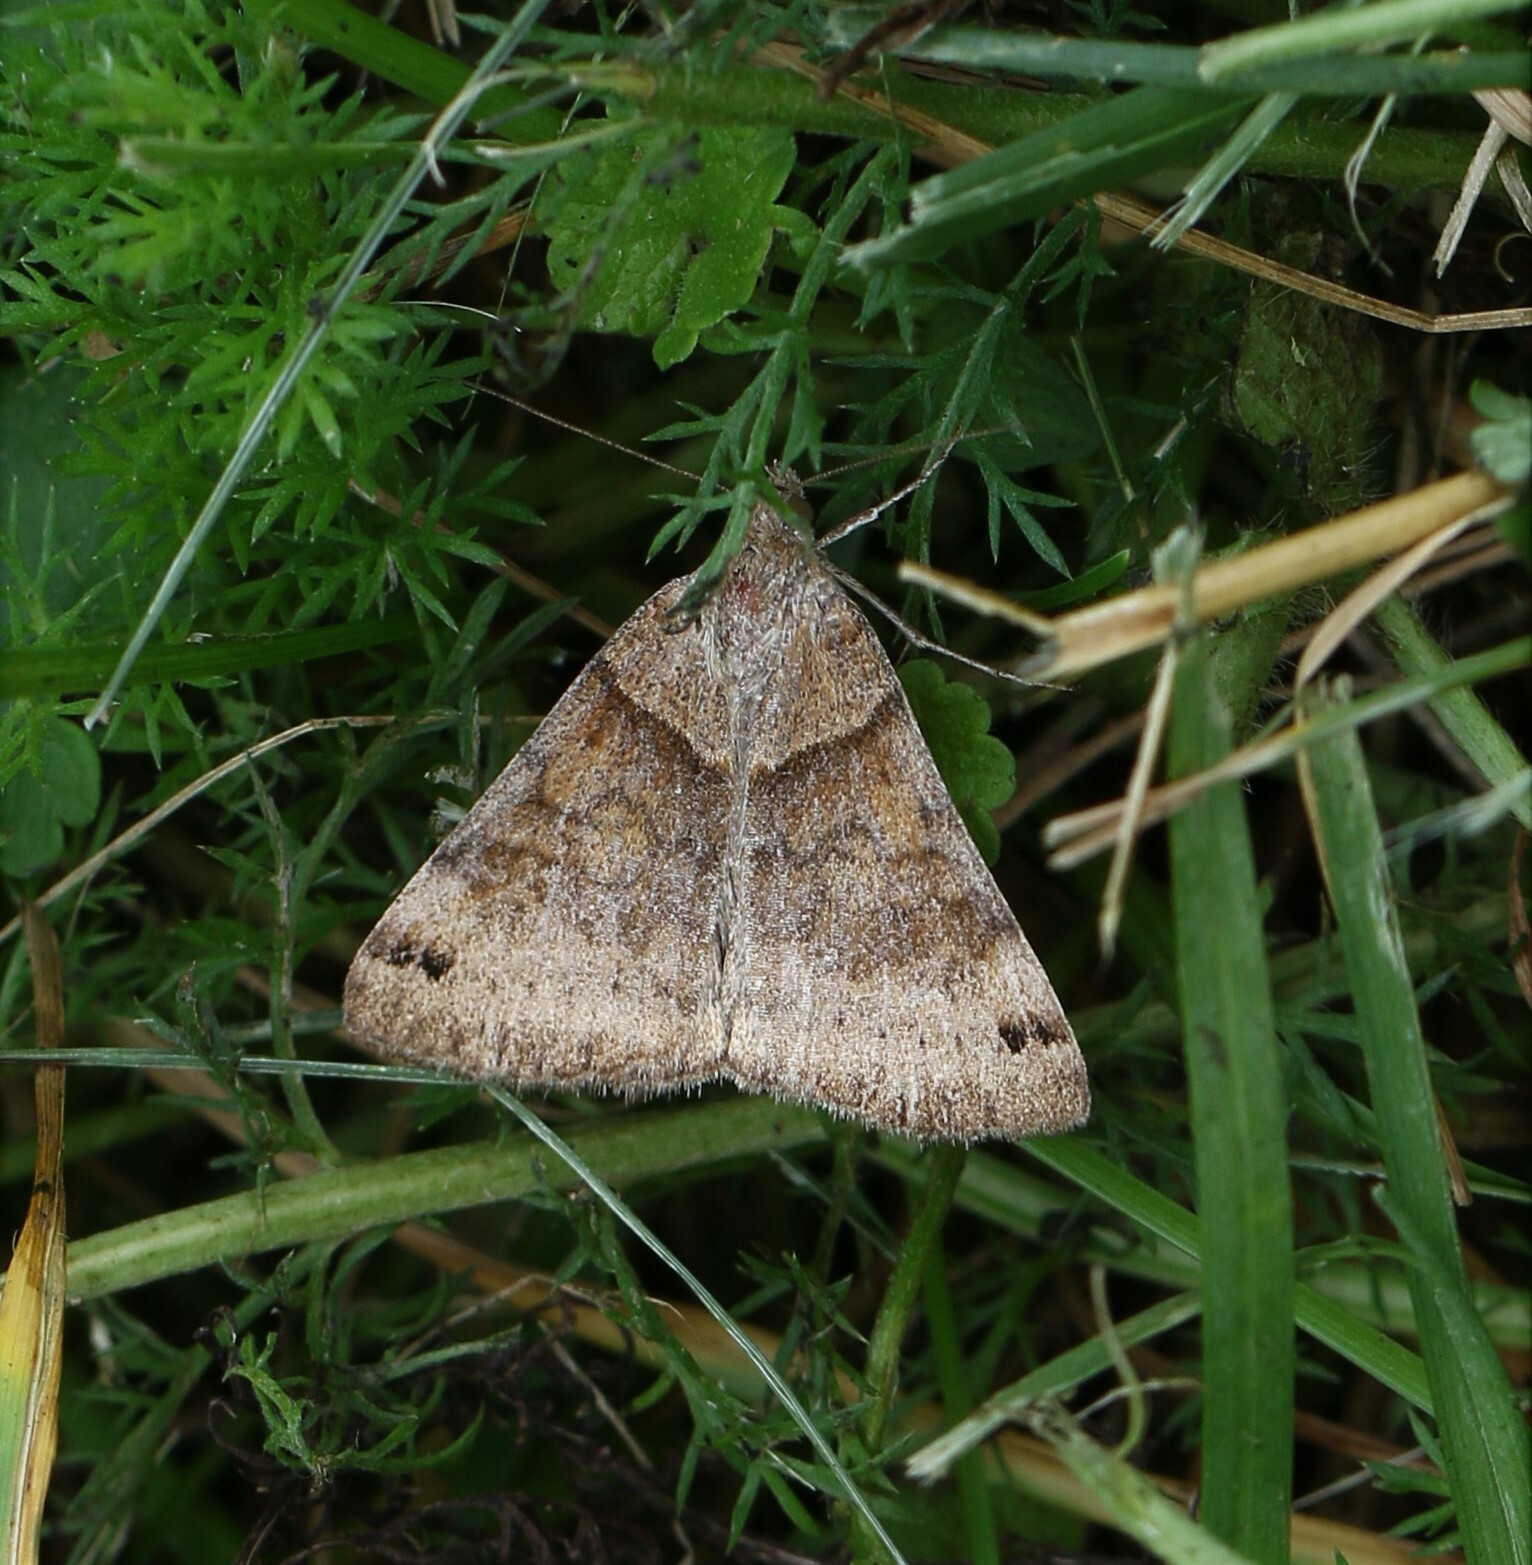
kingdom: Animalia
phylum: Arthropoda
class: Insecta
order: Lepidoptera
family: Erebidae
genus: Caenurgina
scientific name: Caenurgina crassiuscula
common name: Double-barred
